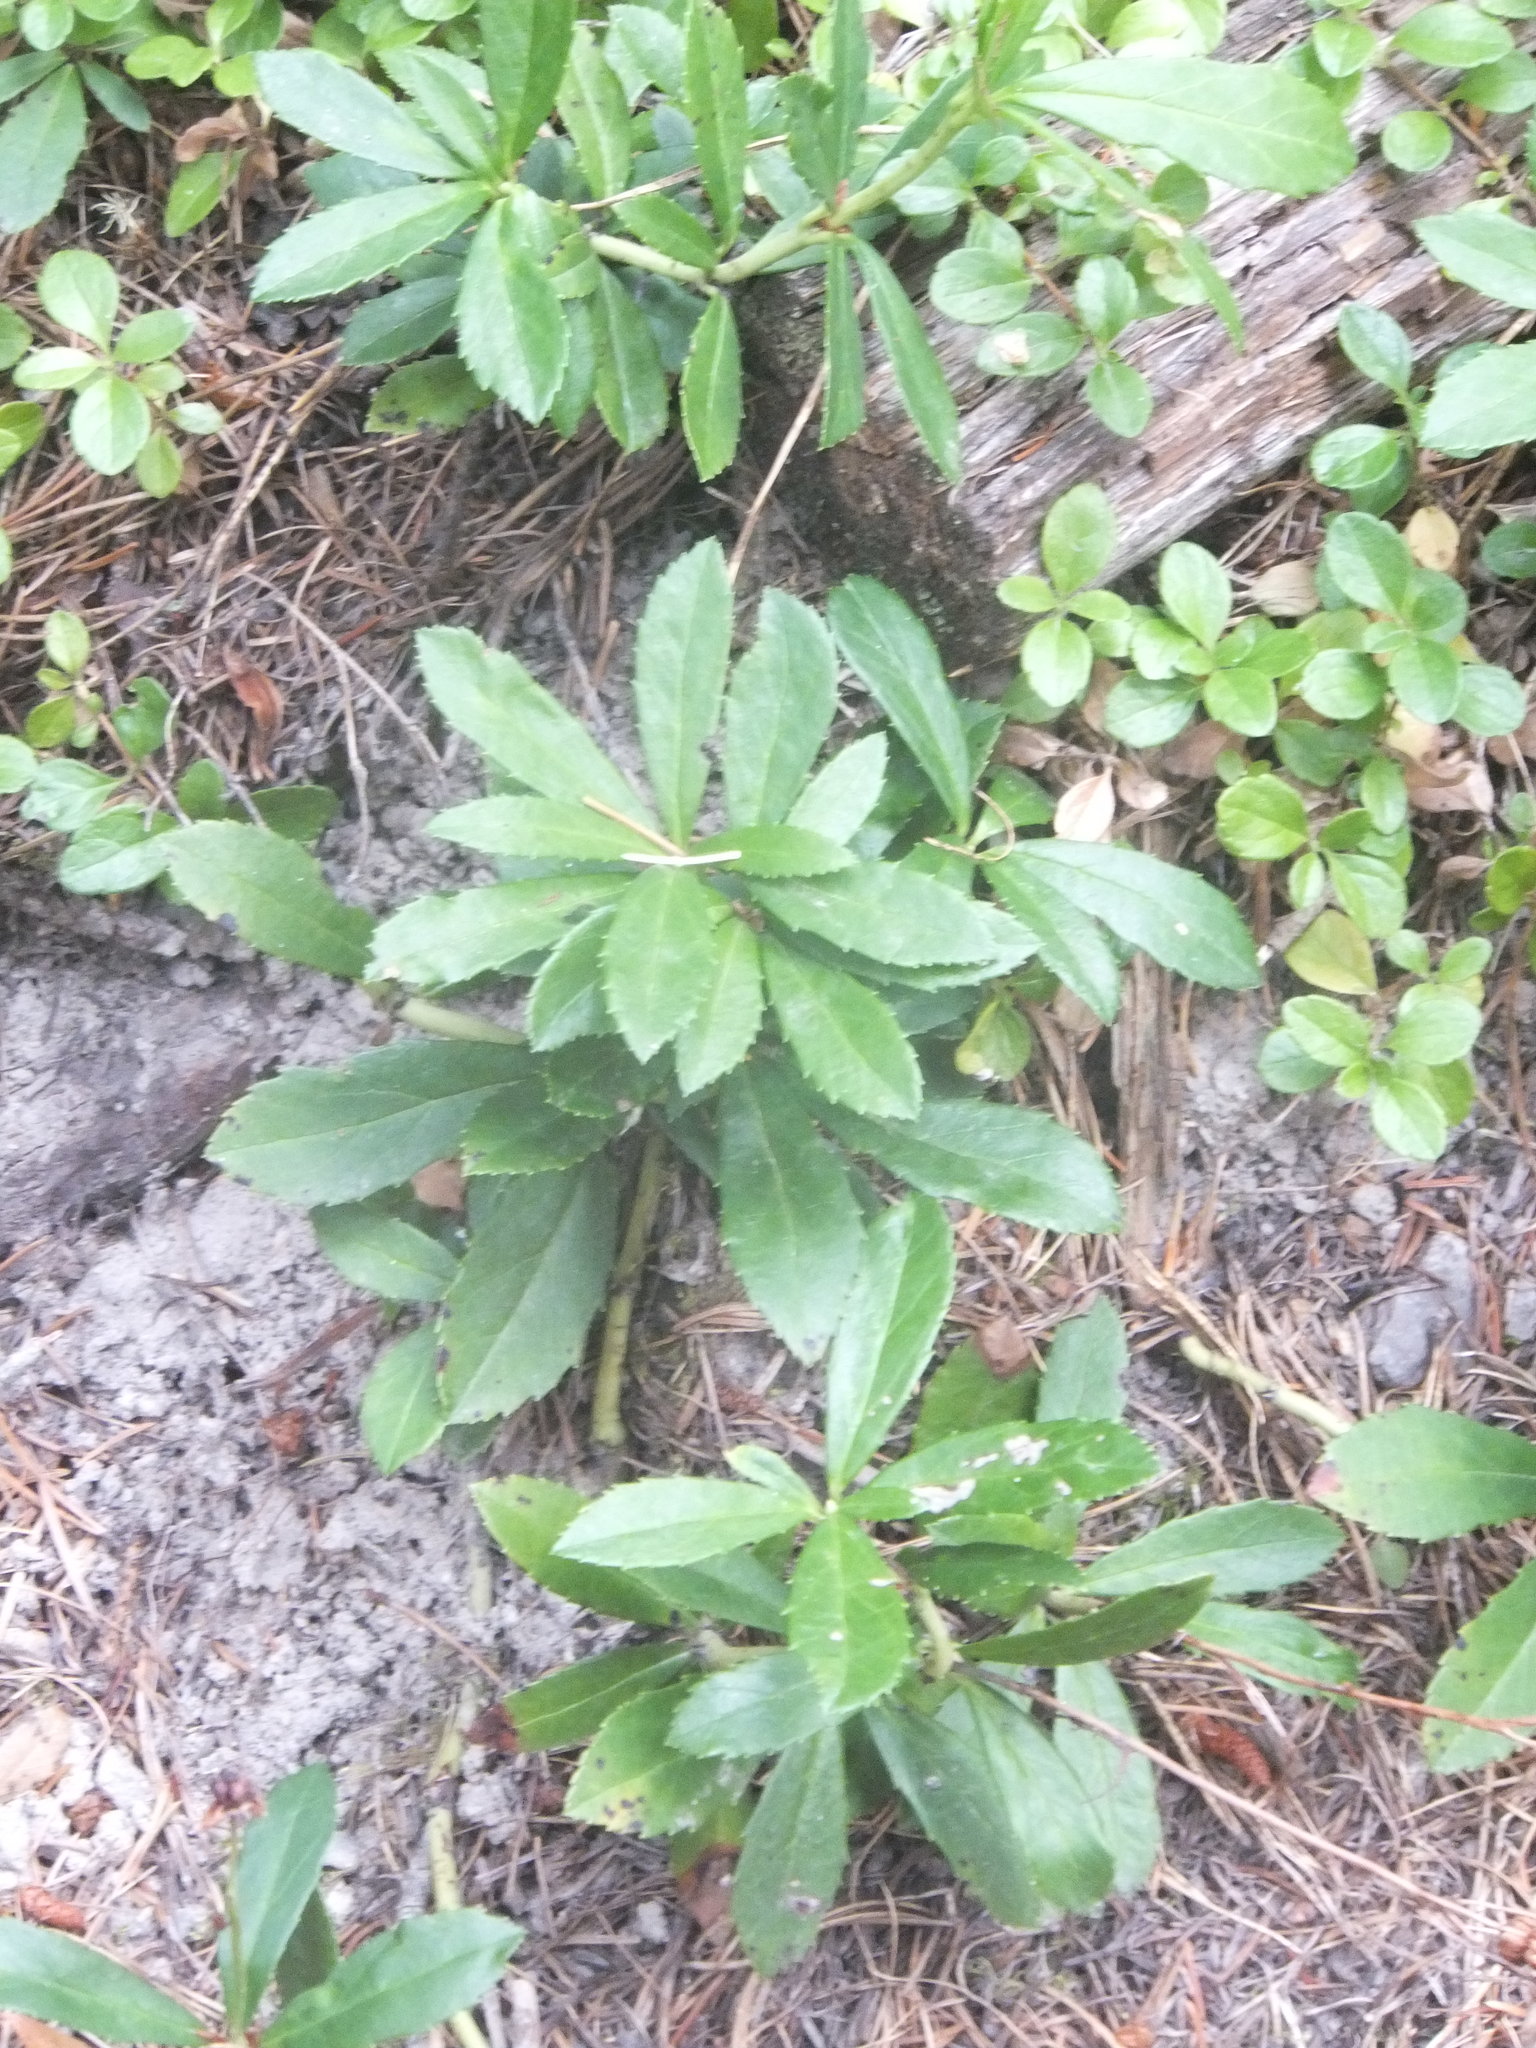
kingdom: Plantae
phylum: Tracheophyta
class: Magnoliopsida
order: Ericales
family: Ericaceae
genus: Chimaphila
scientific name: Chimaphila umbellata
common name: Pipsissewa
